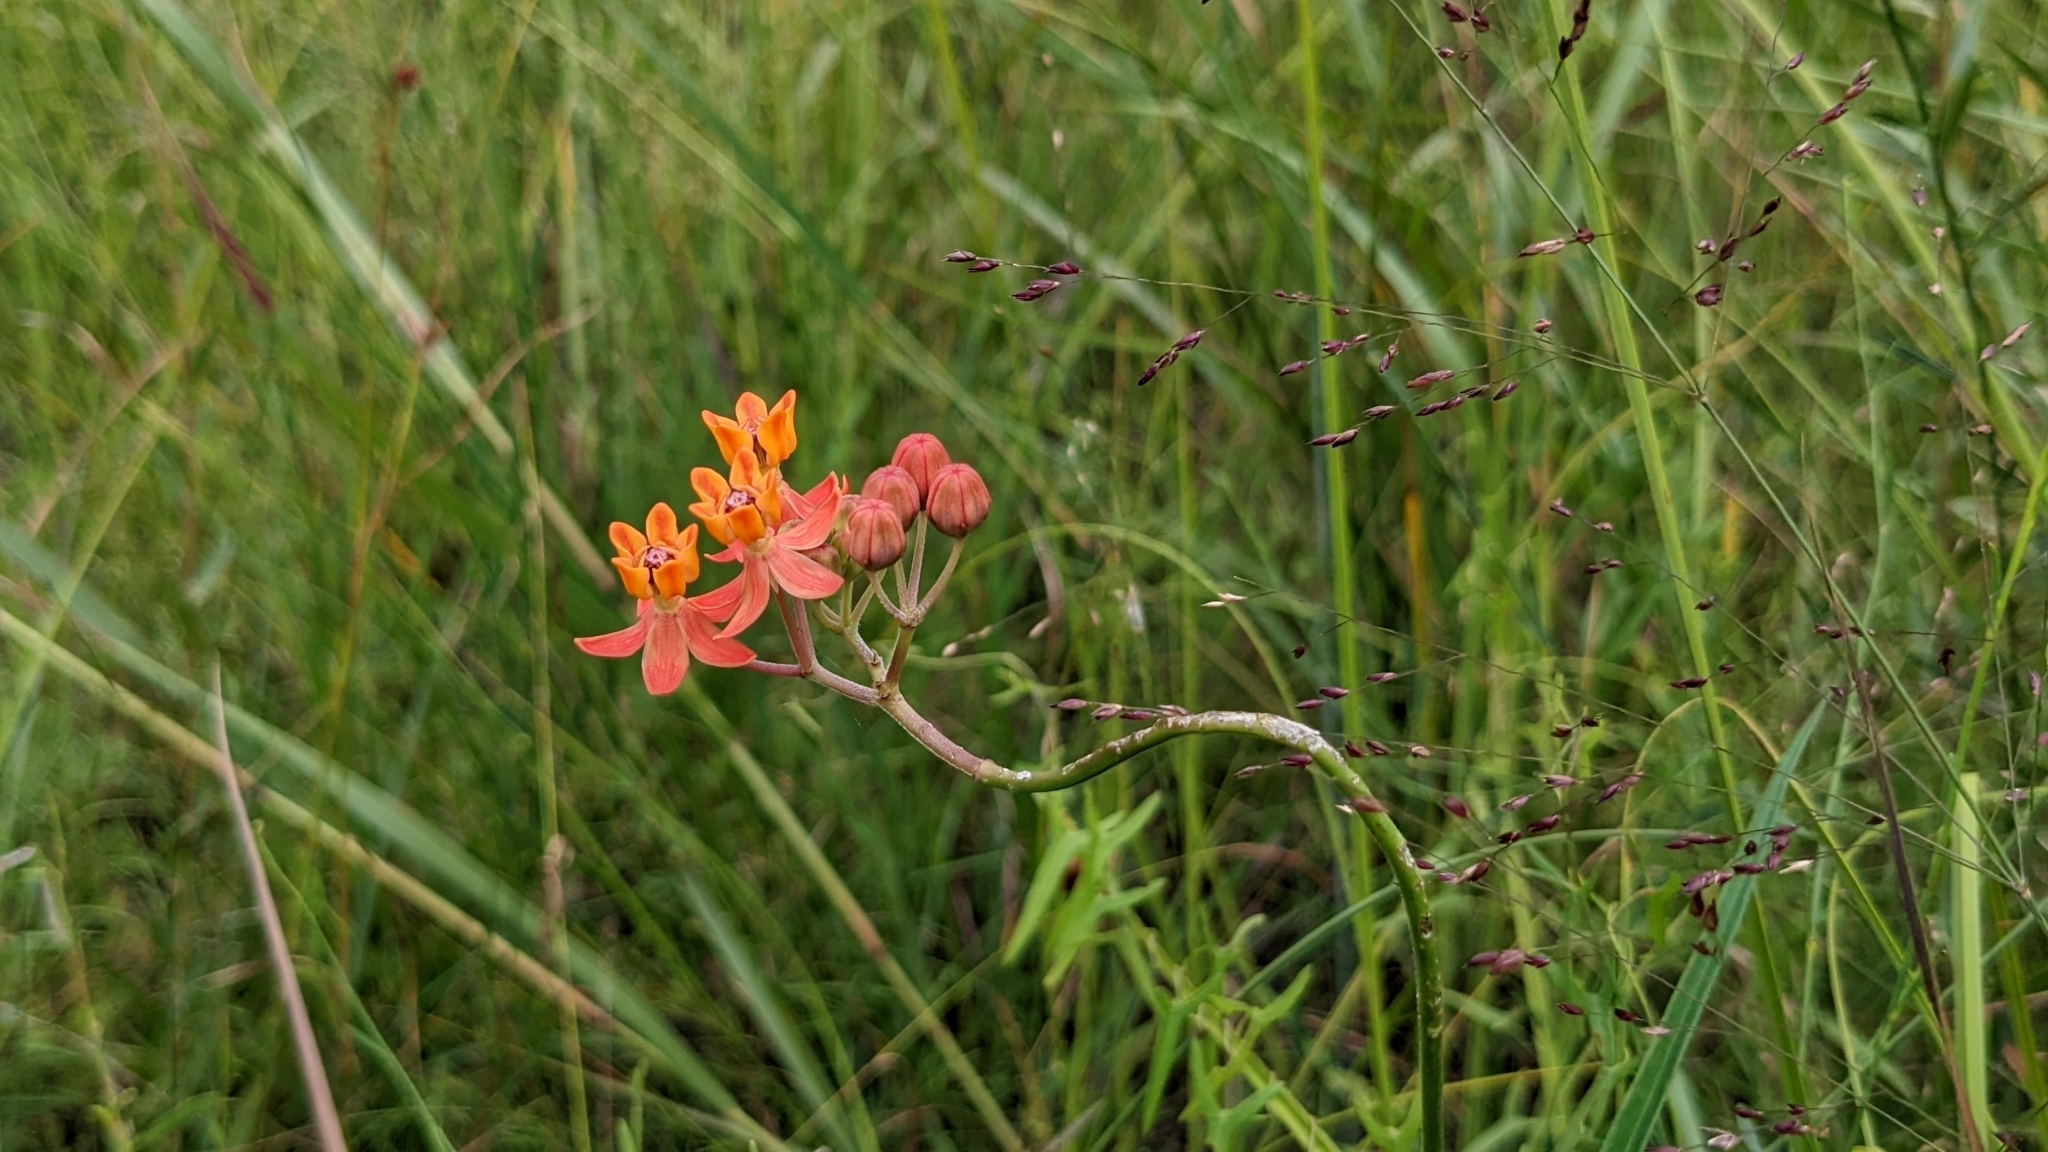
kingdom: Plantae
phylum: Tracheophyta
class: Magnoliopsida
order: Gentianales
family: Apocynaceae
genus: Asclepias
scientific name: Asclepias lanceolata
